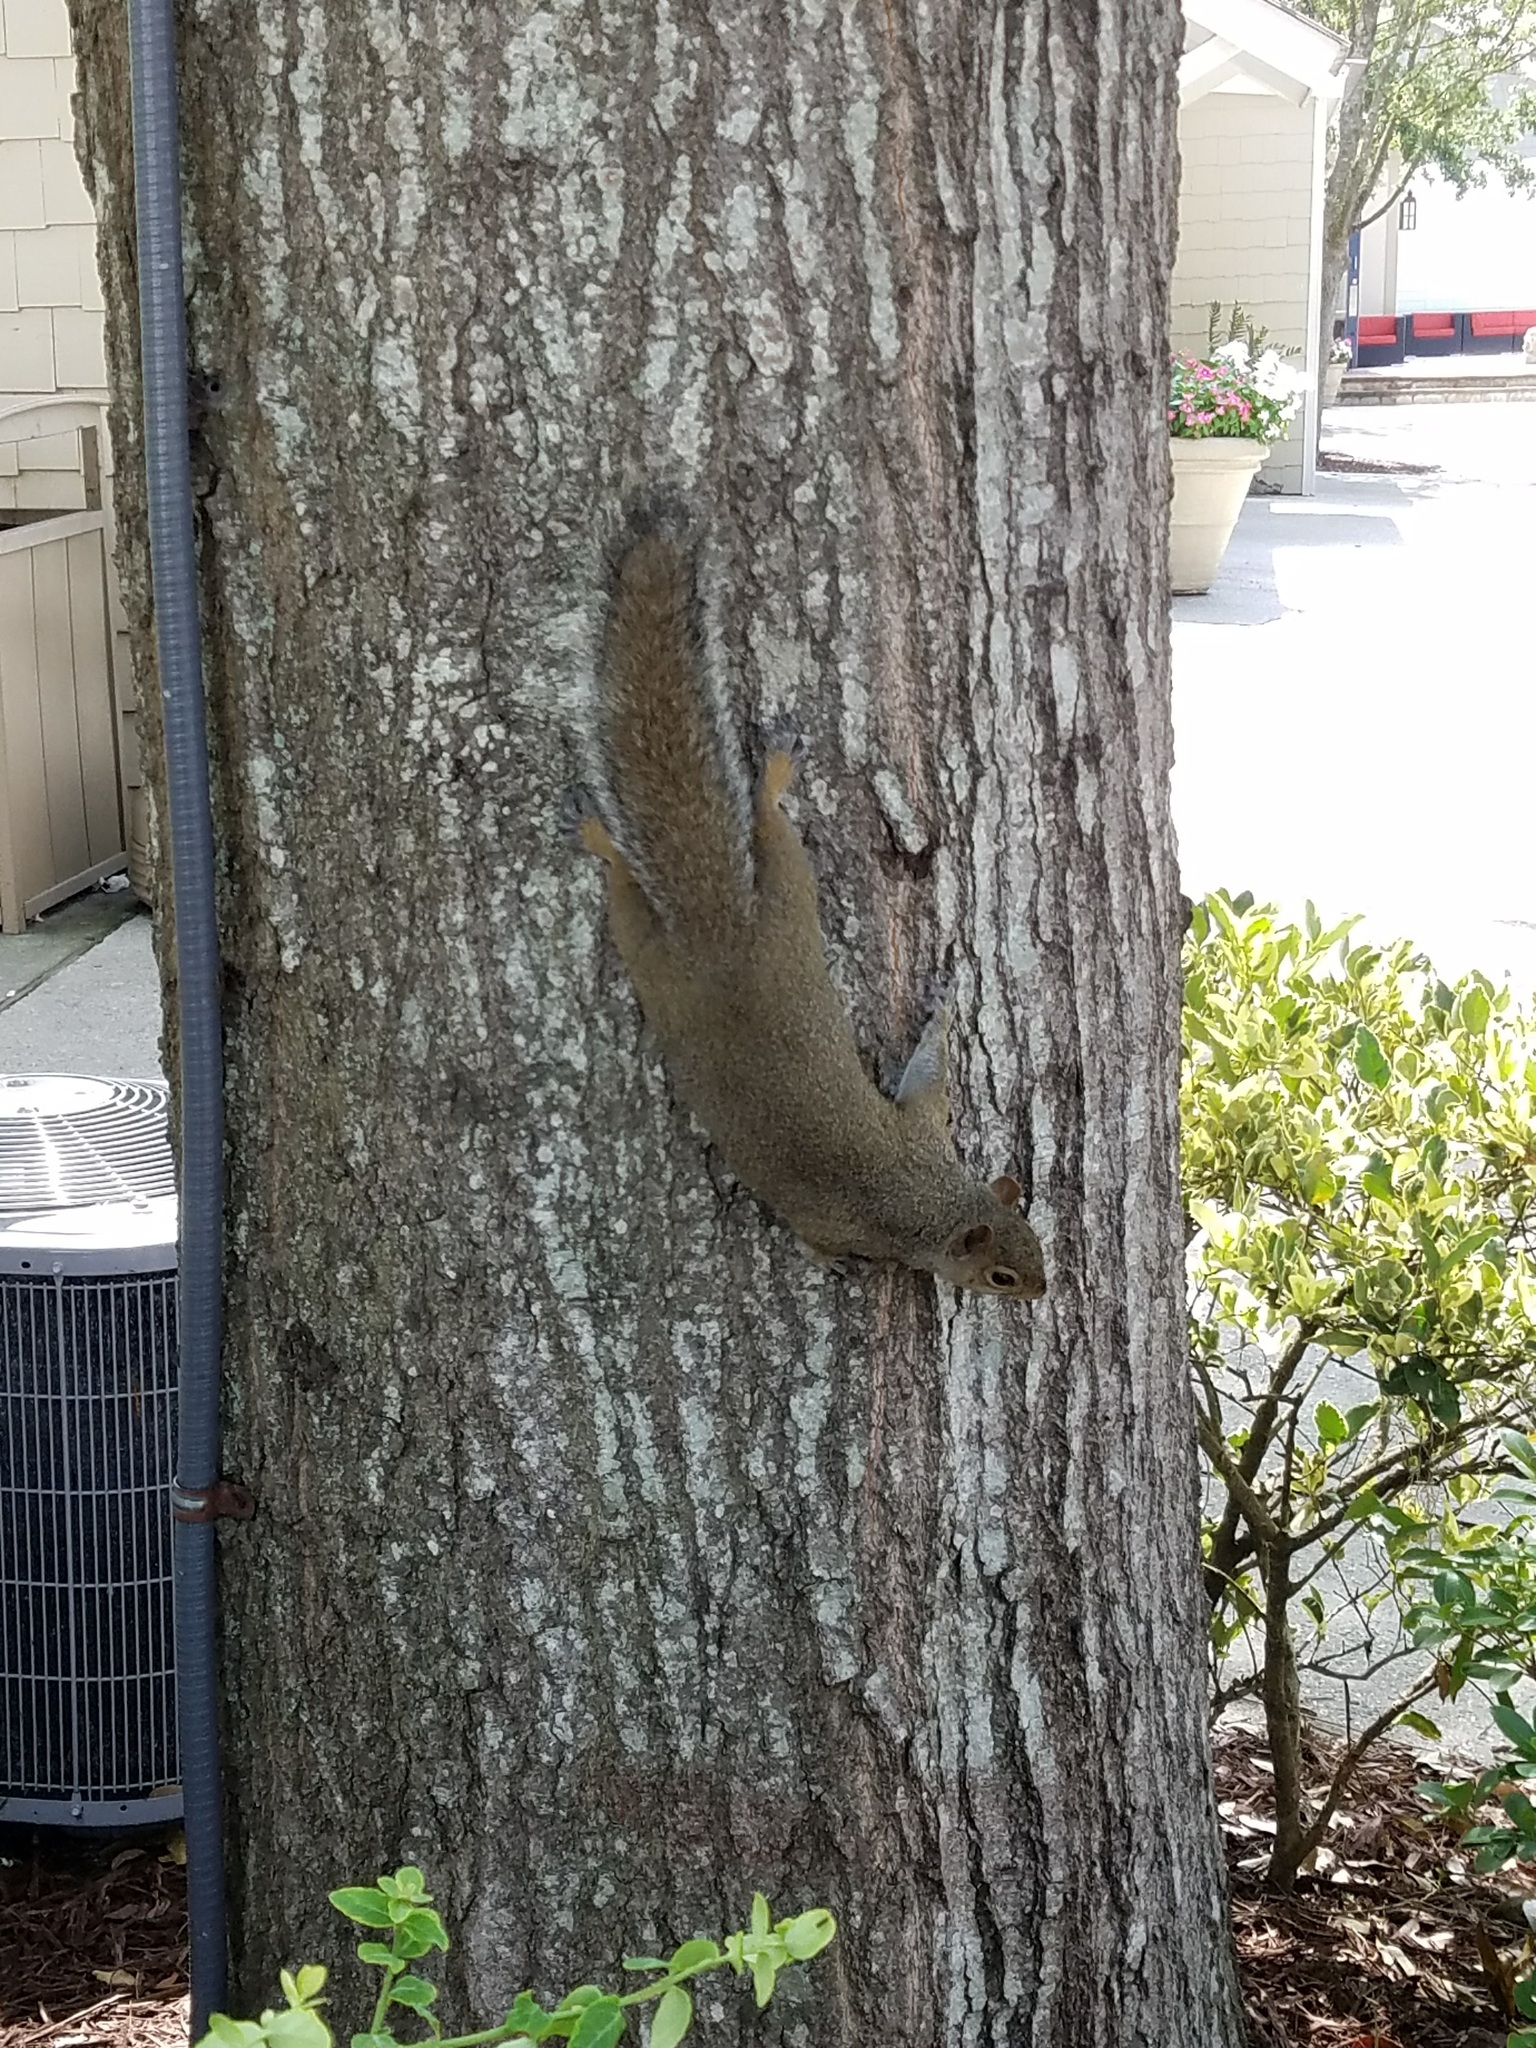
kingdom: Animalia
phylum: Chordata
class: Mammalia
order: Rodentia
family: Sciuridae
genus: Sciurus
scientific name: Sciurus carolinensis
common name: Eastern gray squirrel
